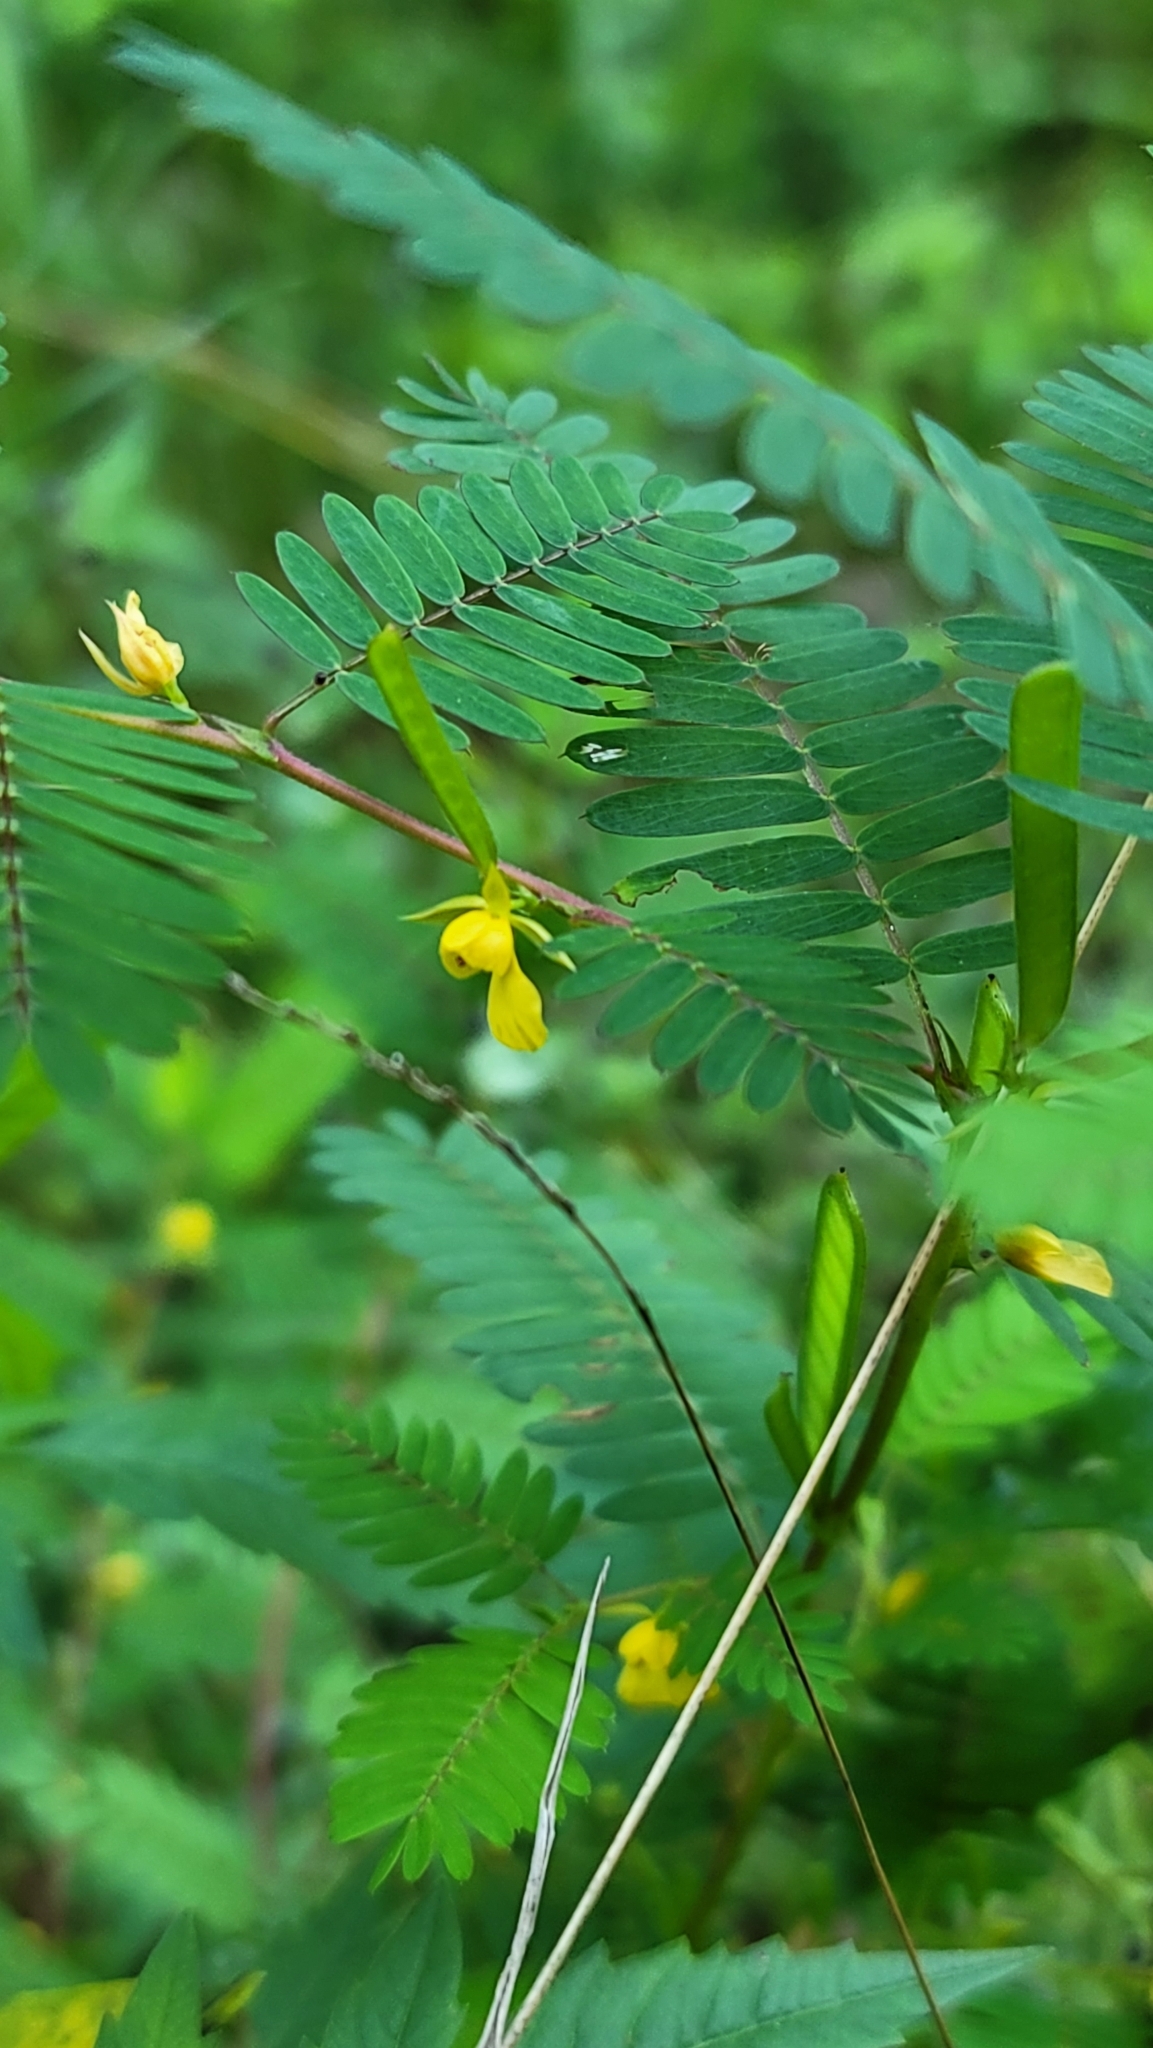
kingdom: Plantae
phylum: Tracheophyta
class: Magnoliopsida
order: Fabales
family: Fabaceae
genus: Chamaecrista
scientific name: Chamaecrista nictitans
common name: Sensitive cassia
